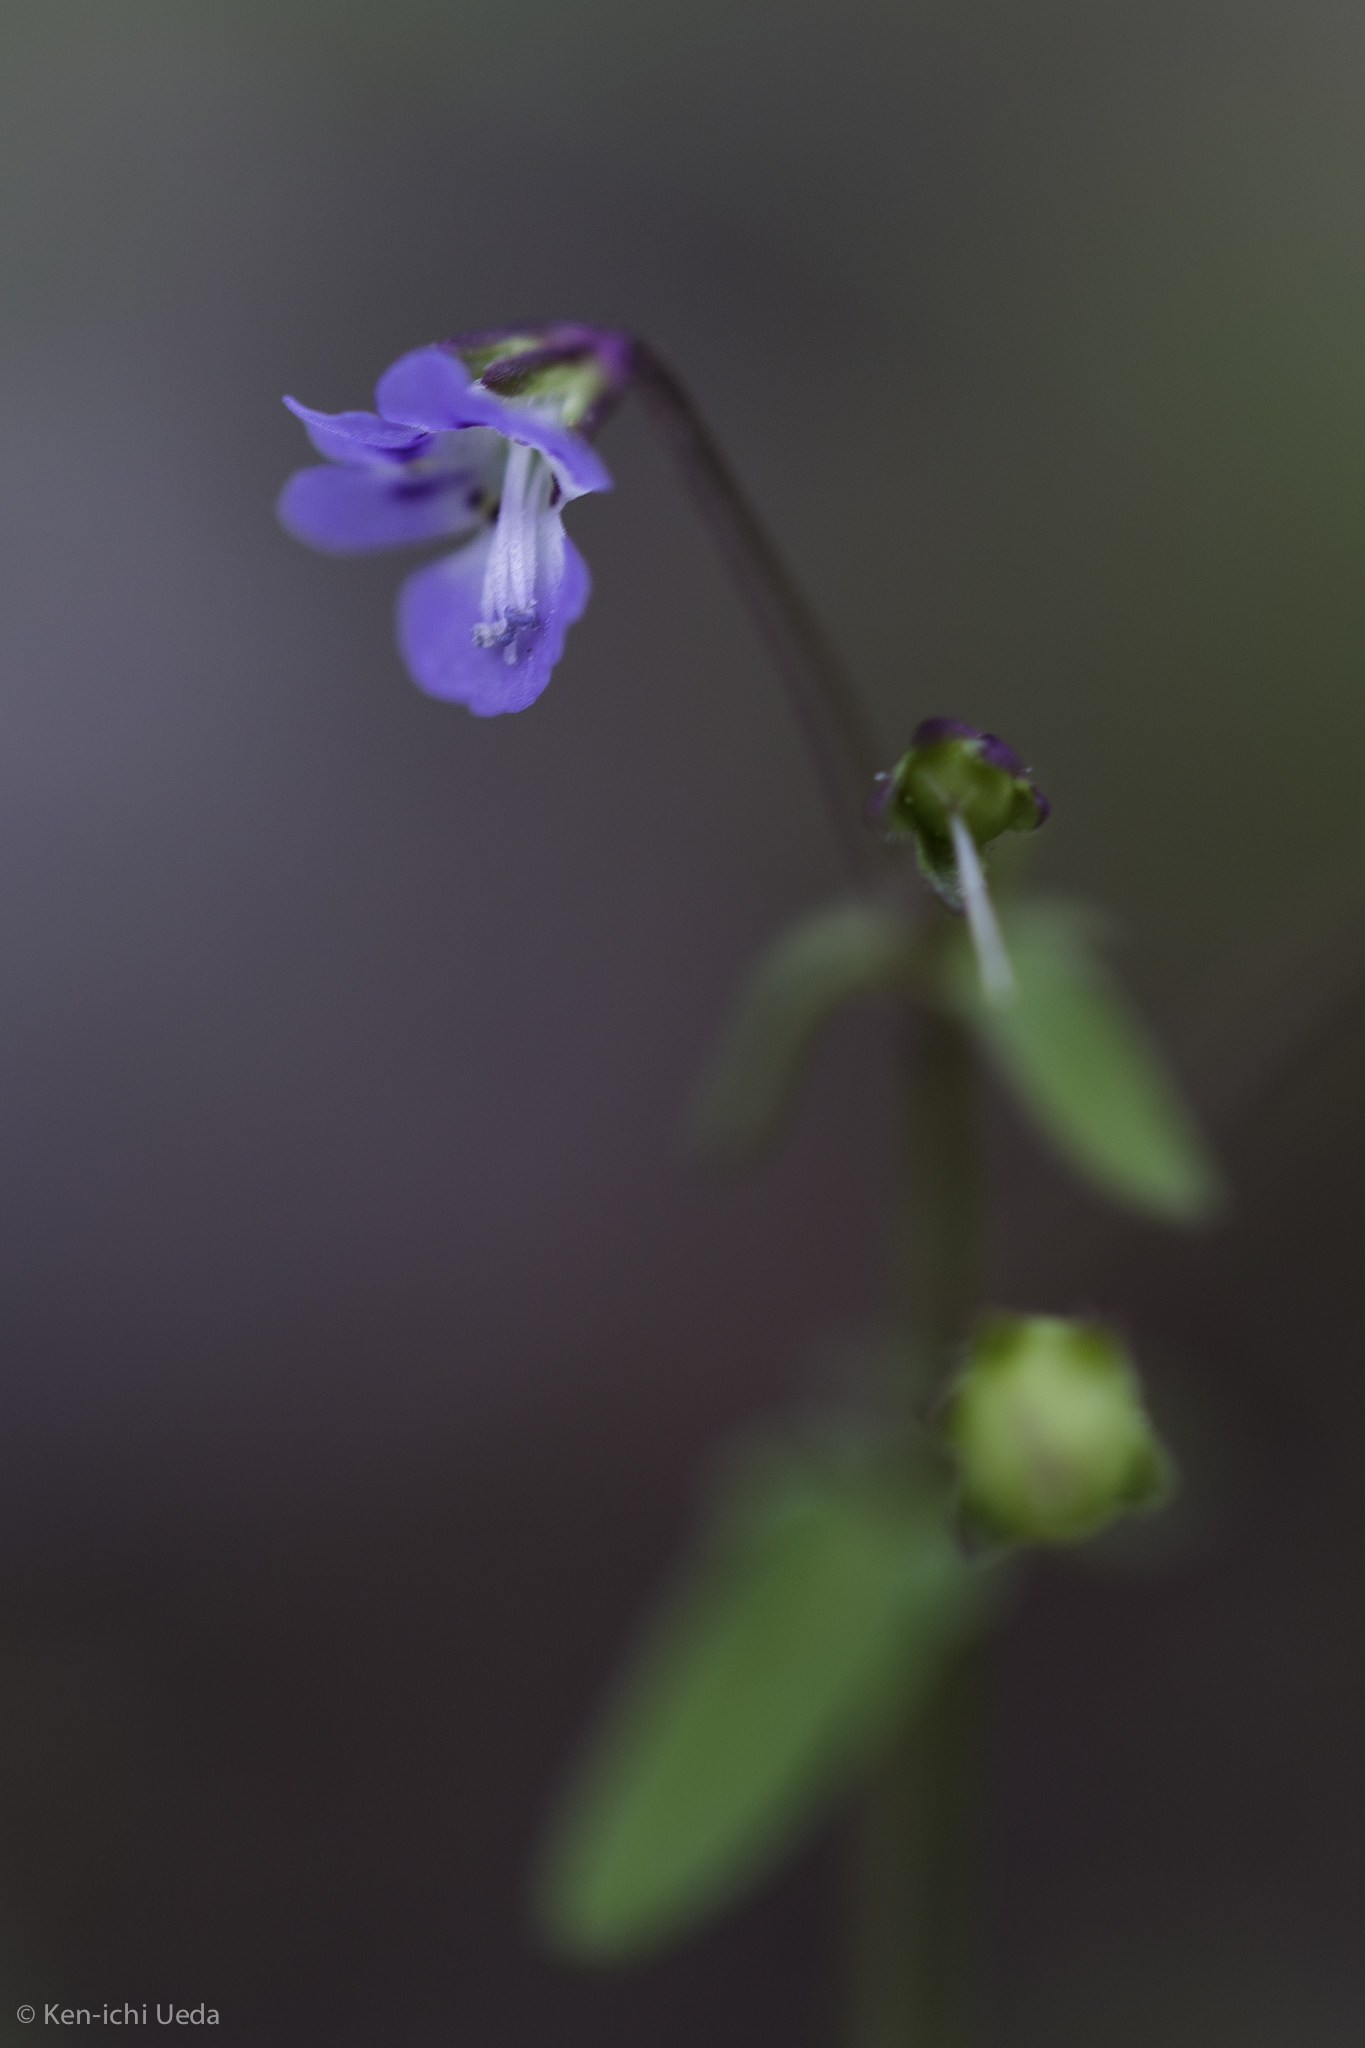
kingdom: Plantae
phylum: Tracheophyta
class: Magnoliopsida
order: Lamiales
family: Plantaginaceae
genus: Tonella
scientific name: Tonella tenella
